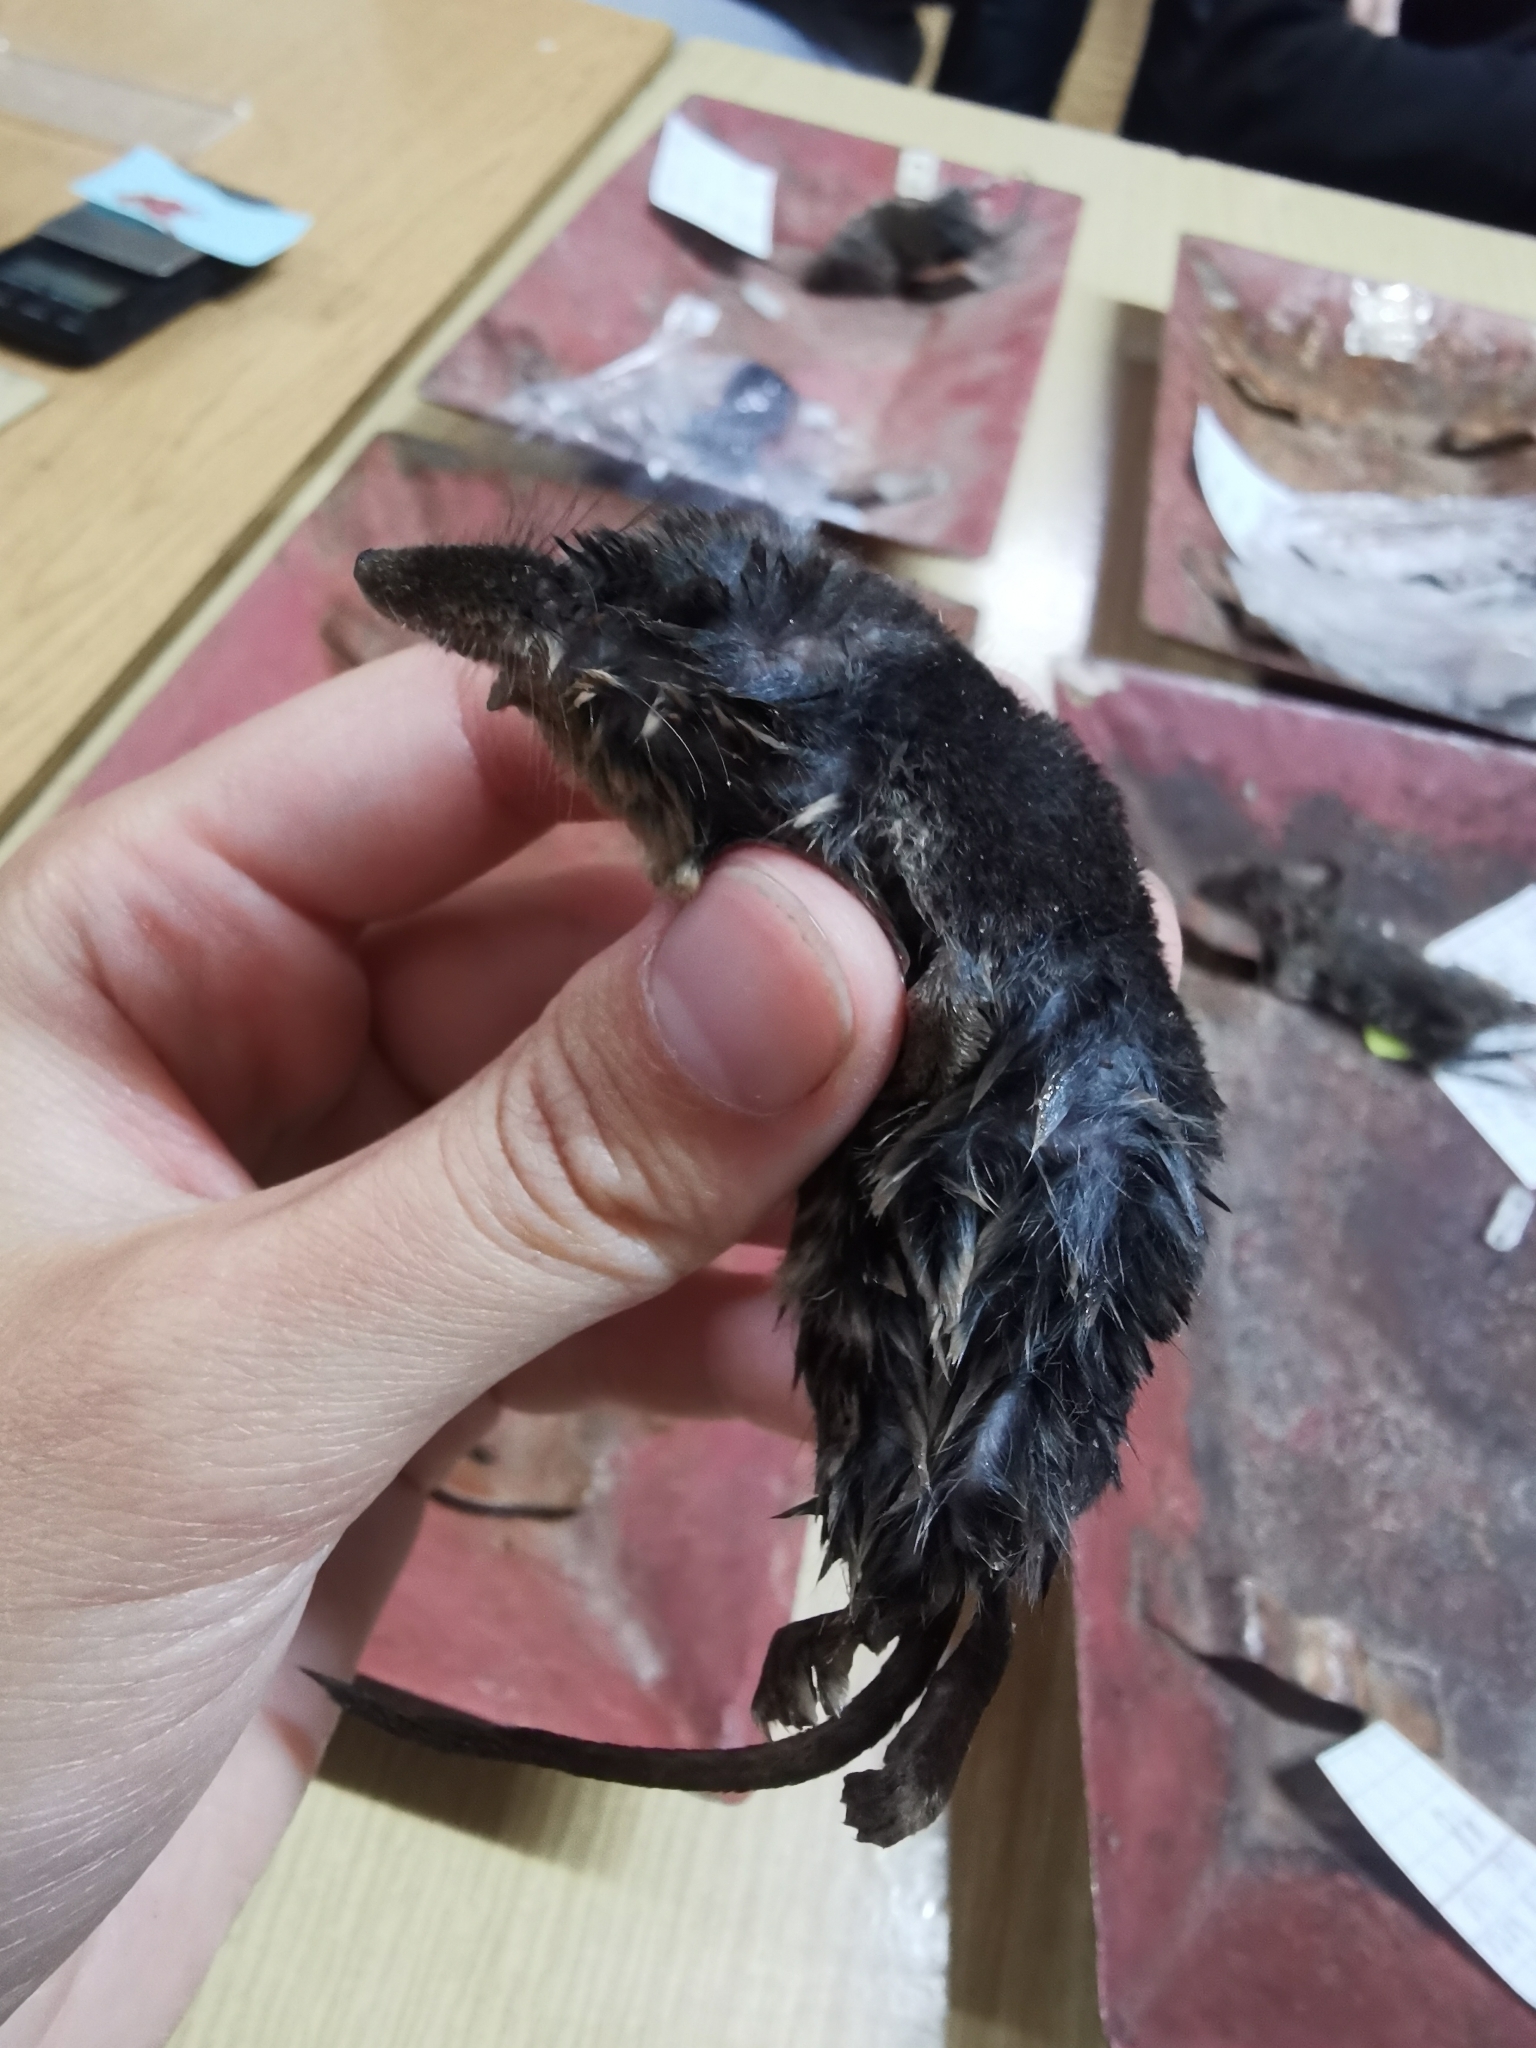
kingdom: Animalia
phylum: Chordata
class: Mammalia
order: Soricomorpha
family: Soricidae
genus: Neomys
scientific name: Neomys fodiens
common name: Eurasian water shrew
